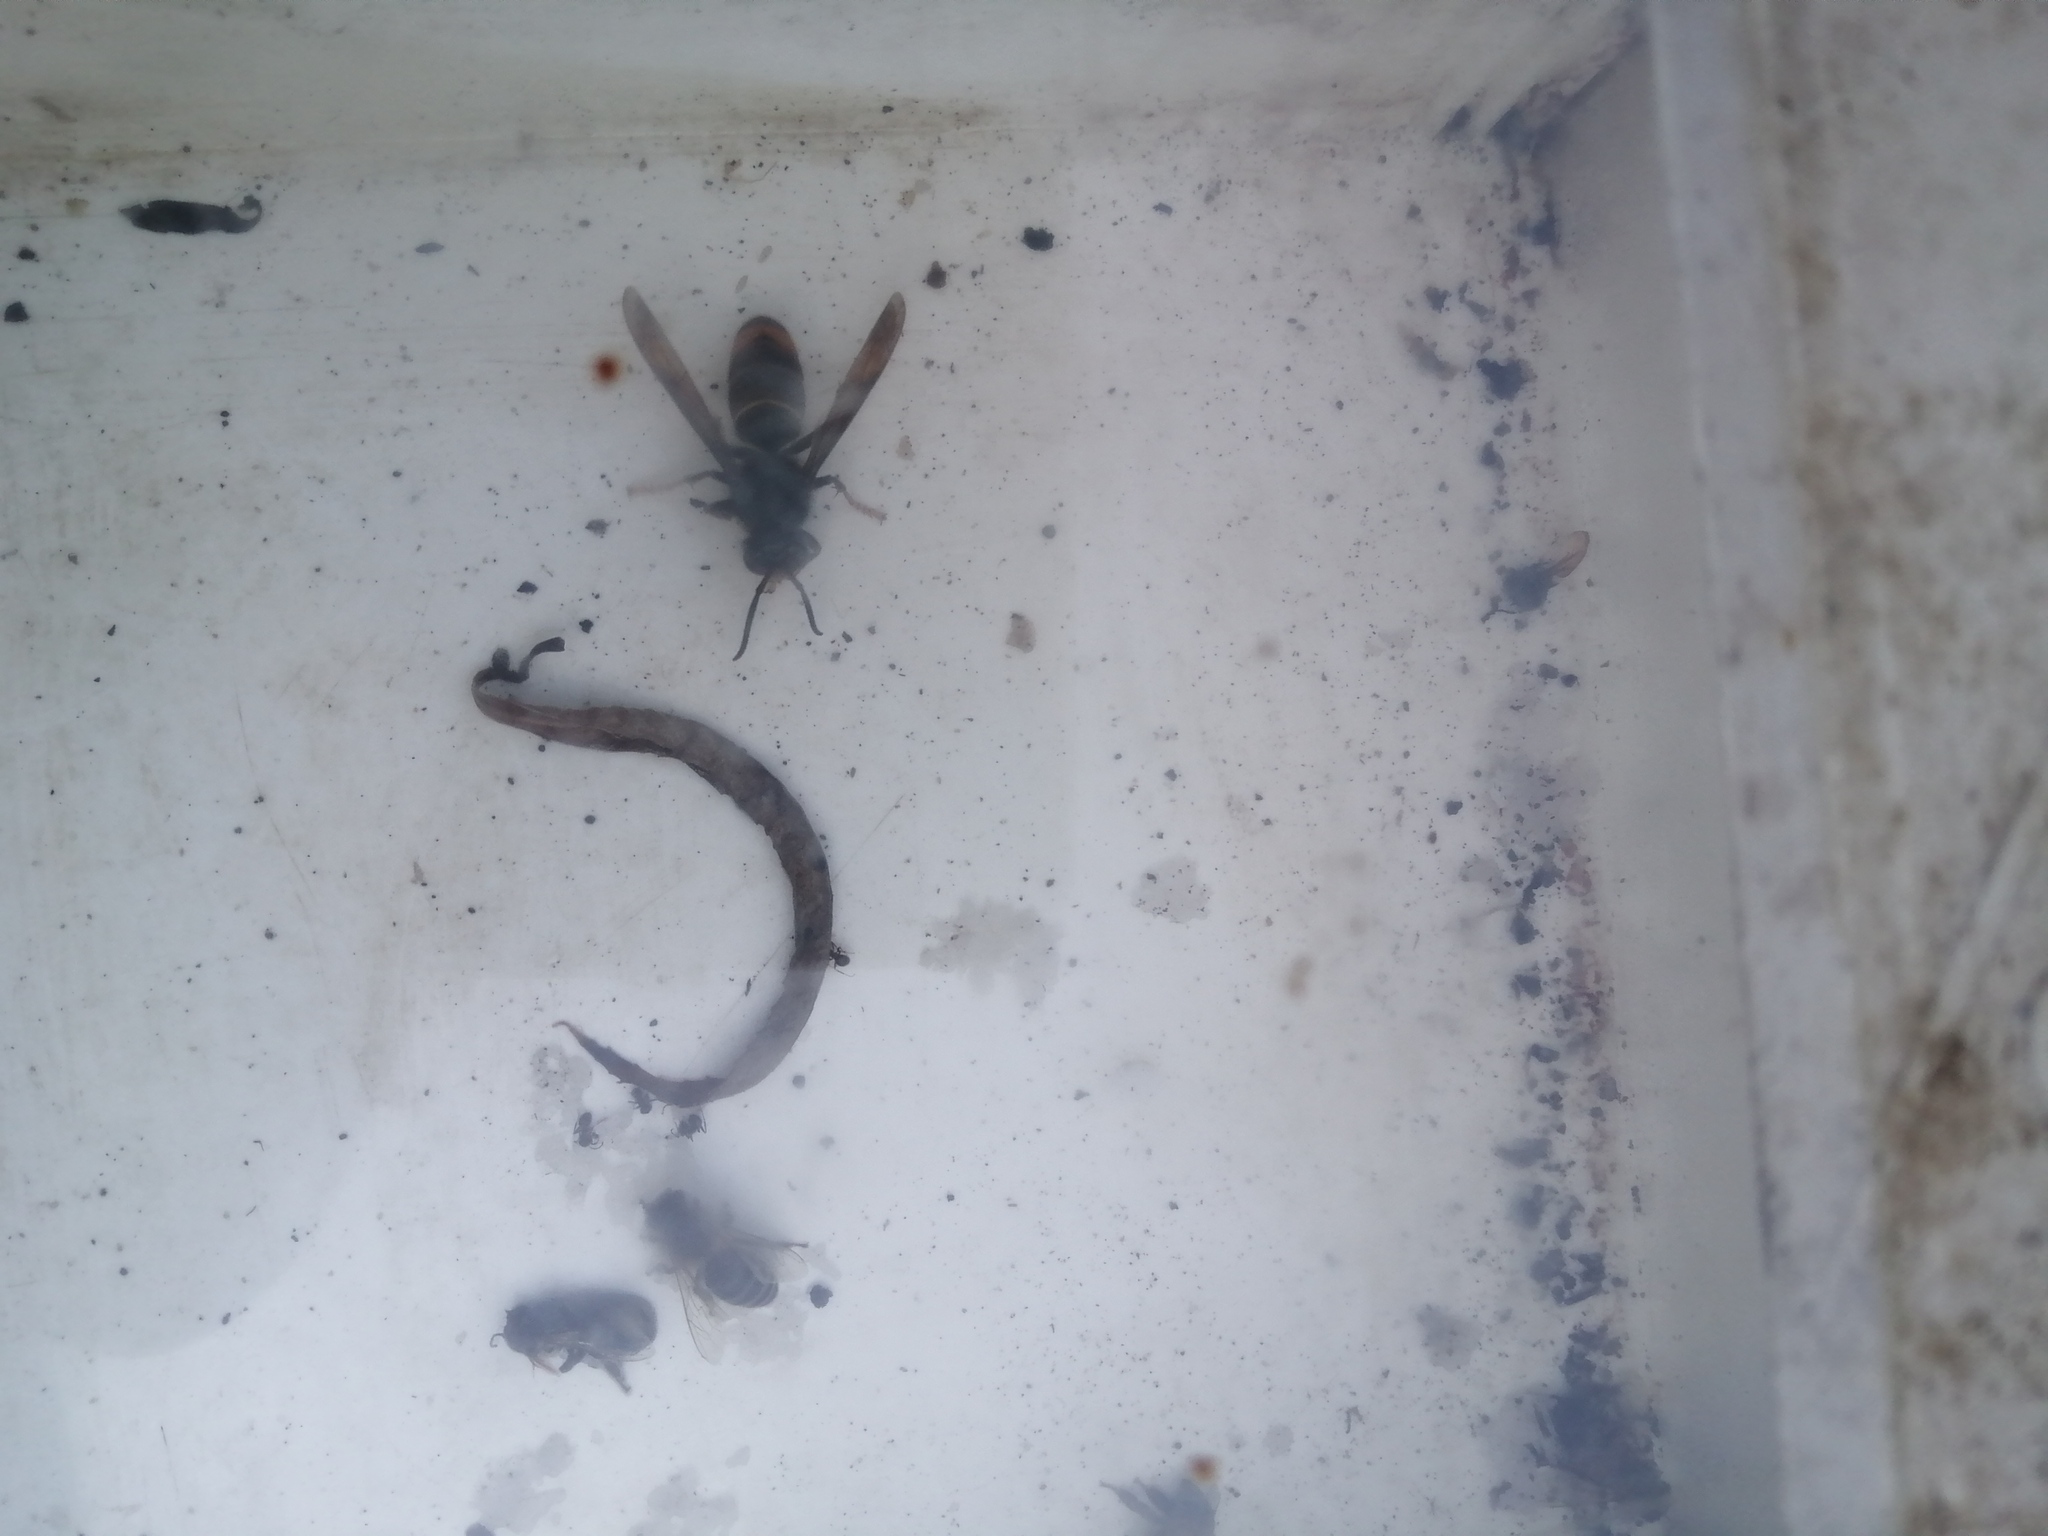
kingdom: Animalia
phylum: Arthropoda
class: Insecta
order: Hymenoptera
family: Vespidae
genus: Vespa
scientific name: Vespa velutina
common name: Asian hornet
